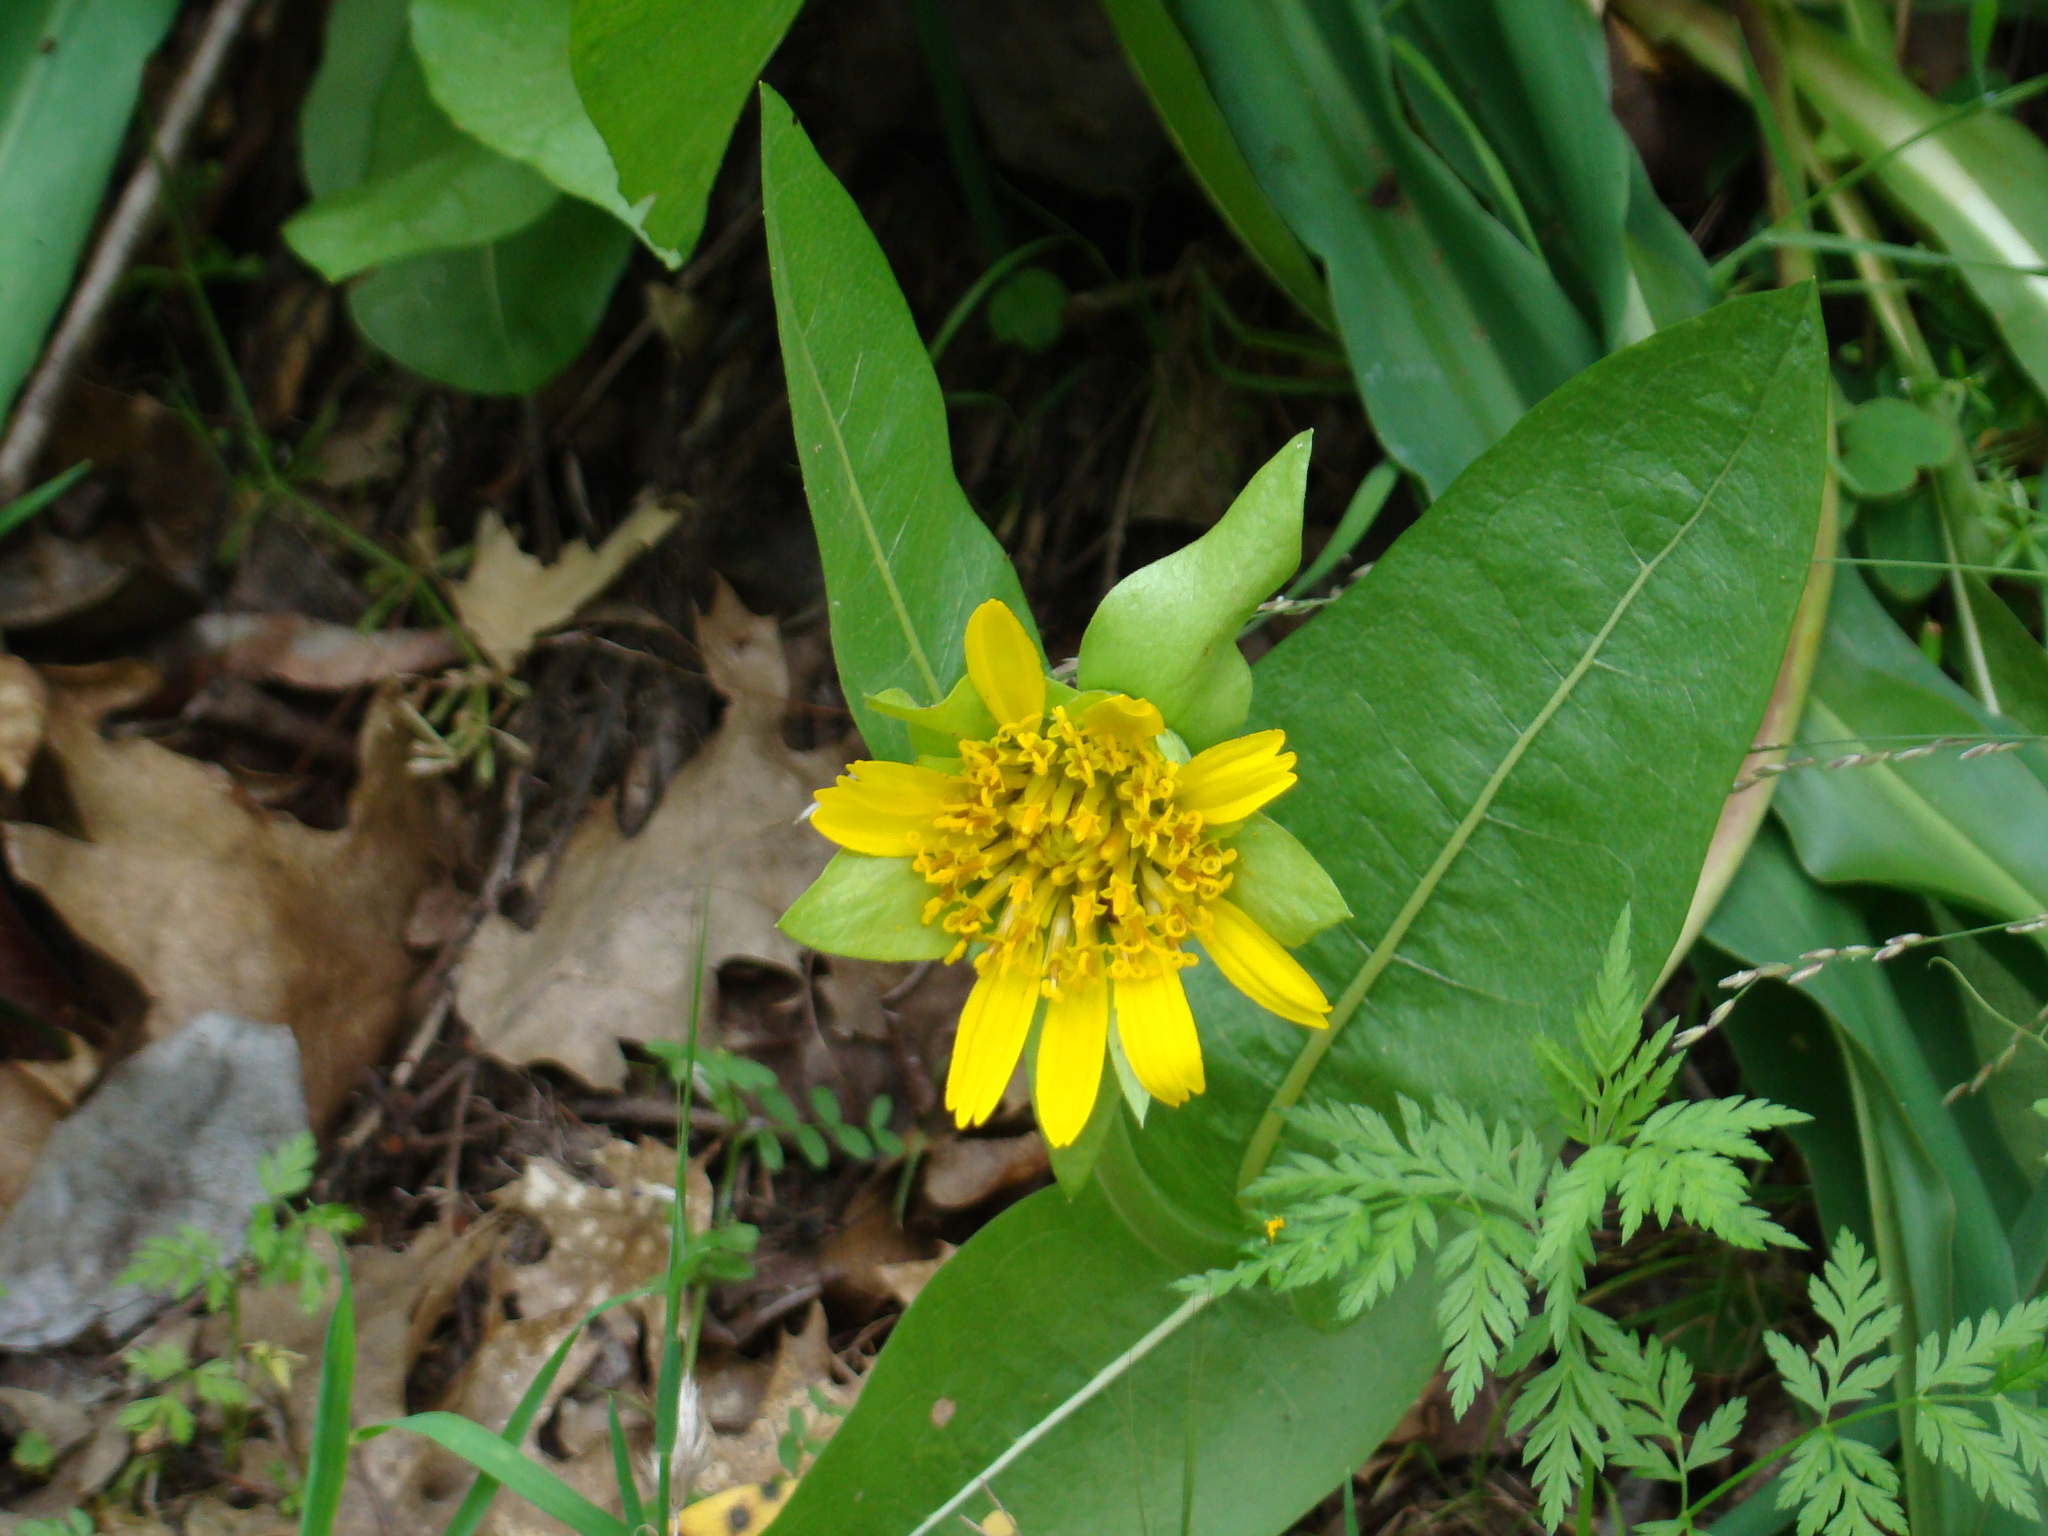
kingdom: Plantae
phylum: Tracheophyta
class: Magnoliopsida
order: Asterales
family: Asteraceae
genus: Wyethia
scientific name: Wyethia glabra
